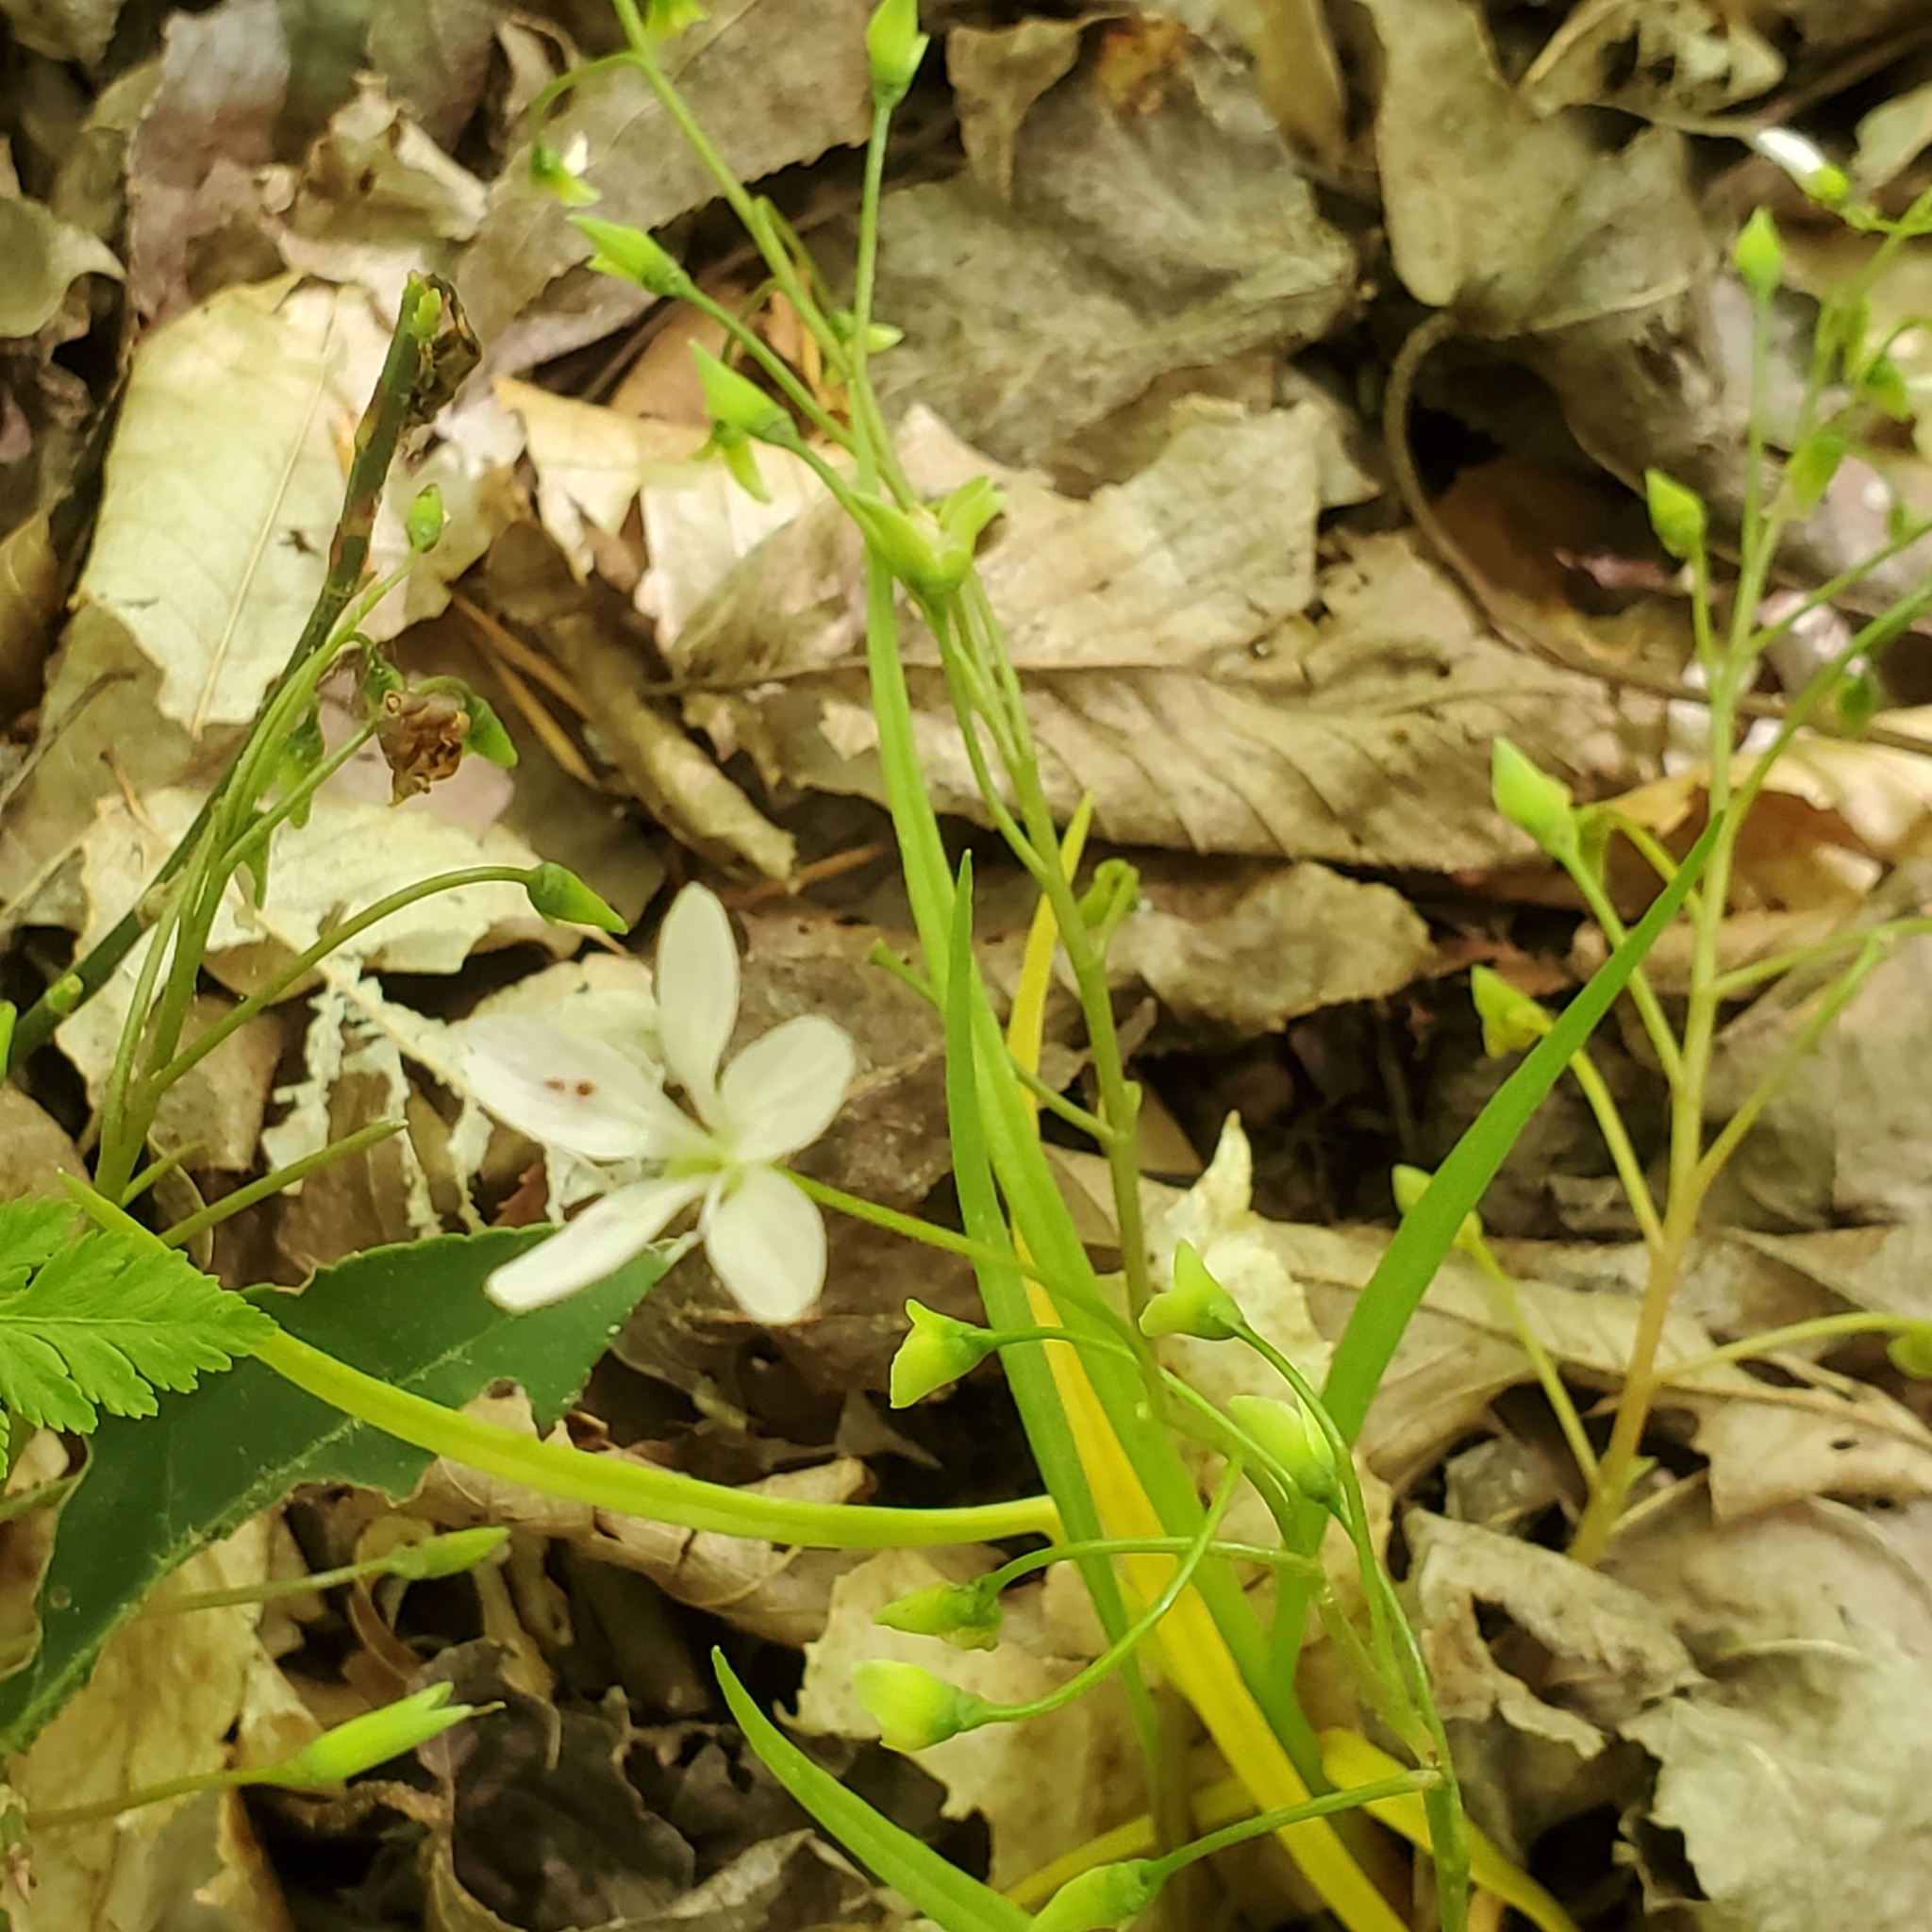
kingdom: Plantae
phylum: Tracheophyta
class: Magnoliopsida
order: Caryophyllales
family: Montiaceae
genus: Claytonia
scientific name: Claytonia virginica
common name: Virginia springbeauty
